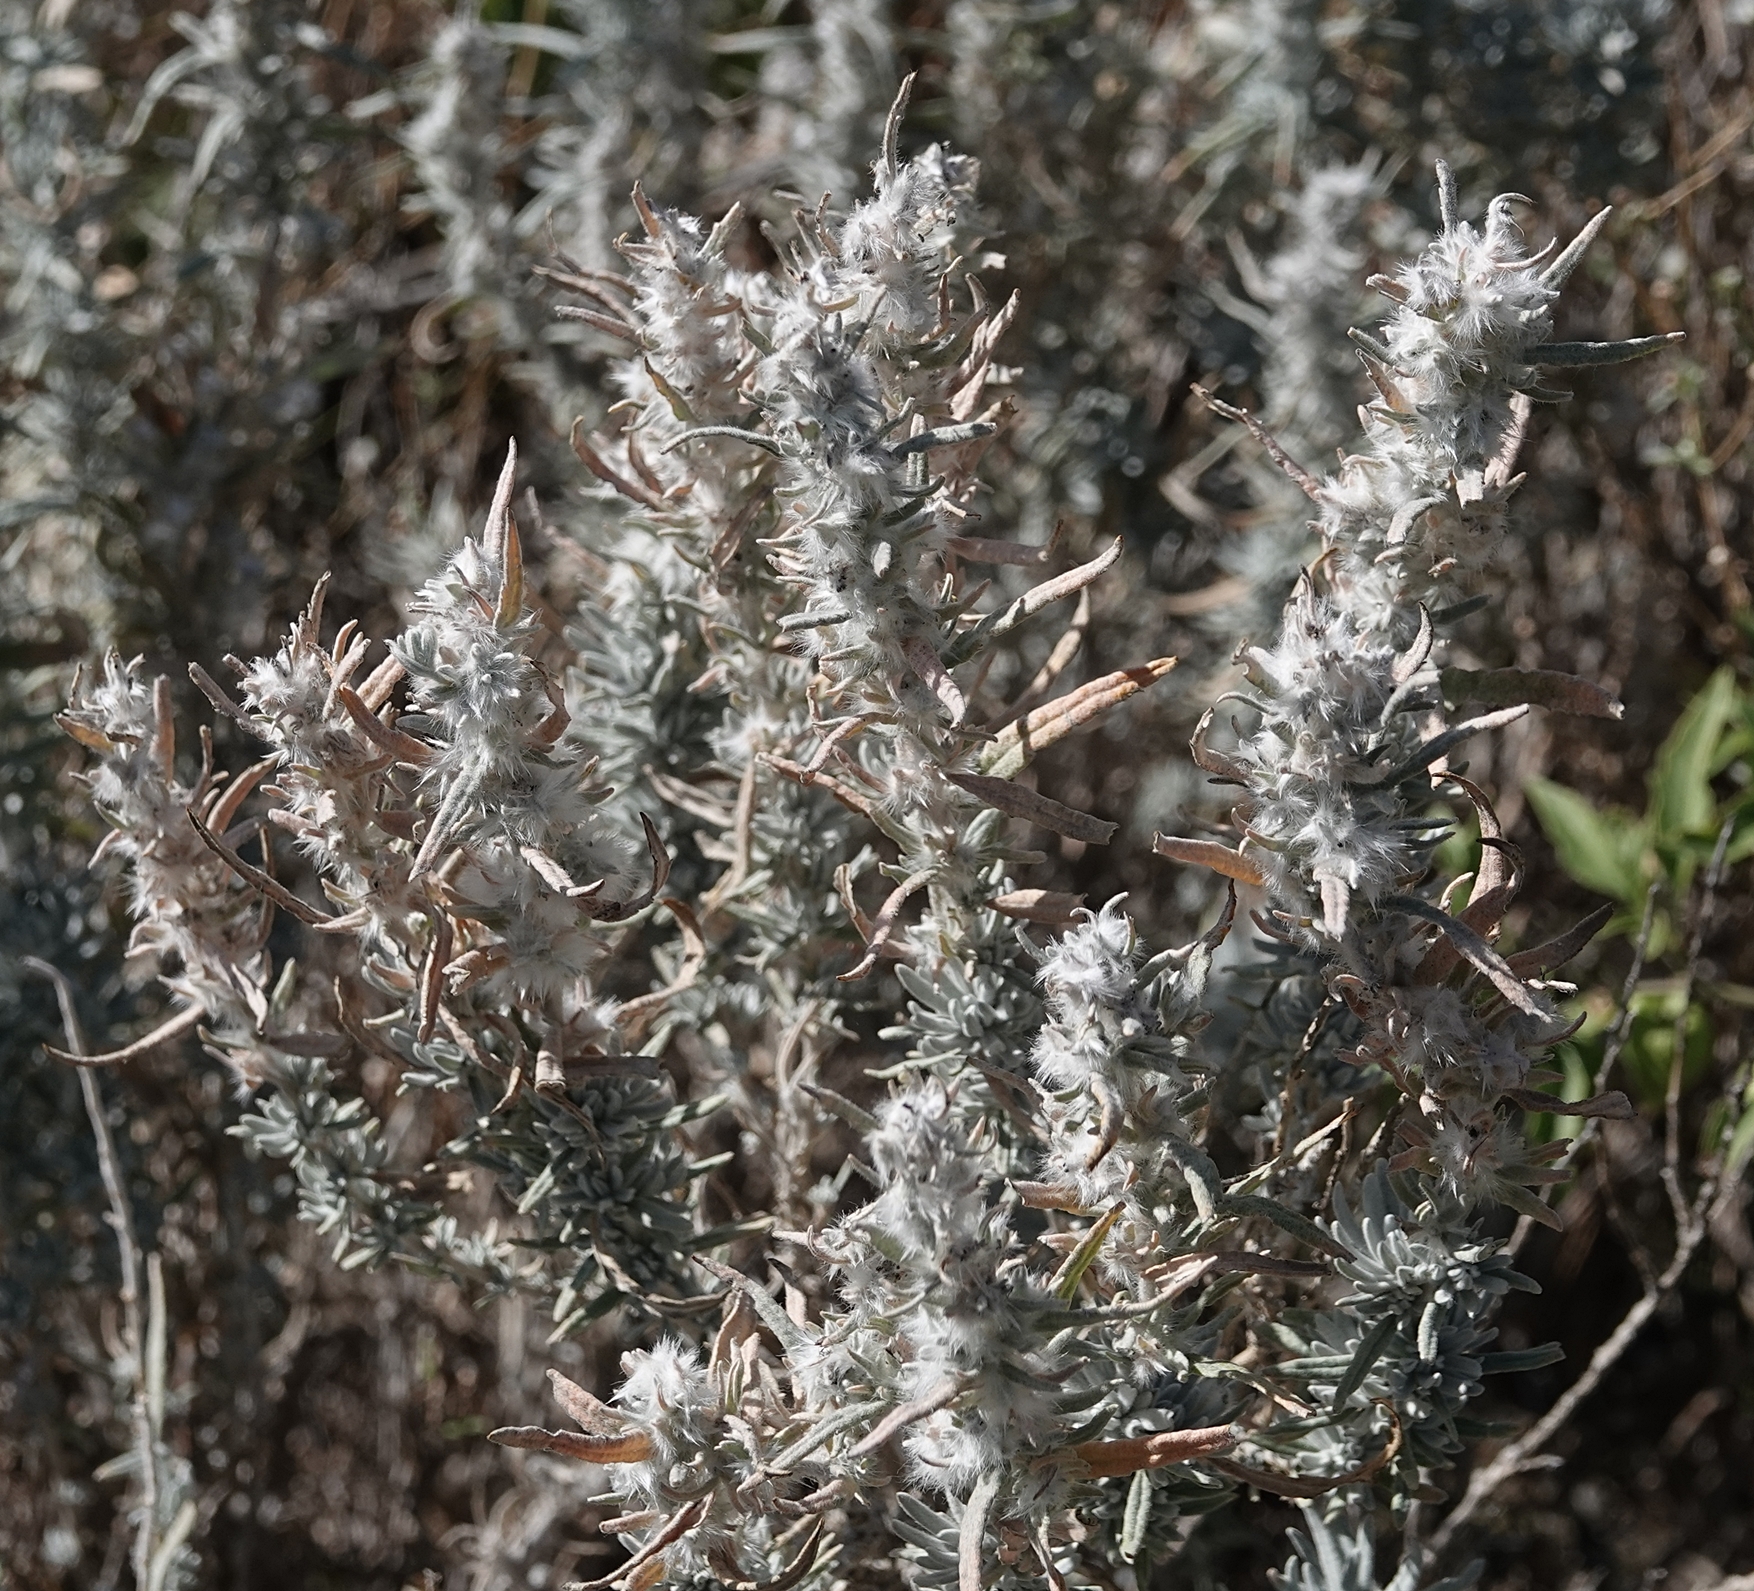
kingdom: Plantae
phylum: Tracheophyta
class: Magnoliopsida
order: Caryophyllales
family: Amaranthaceae
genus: Krascheninnikovia
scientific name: Krascheninnikovia lanata
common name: Winterfat
